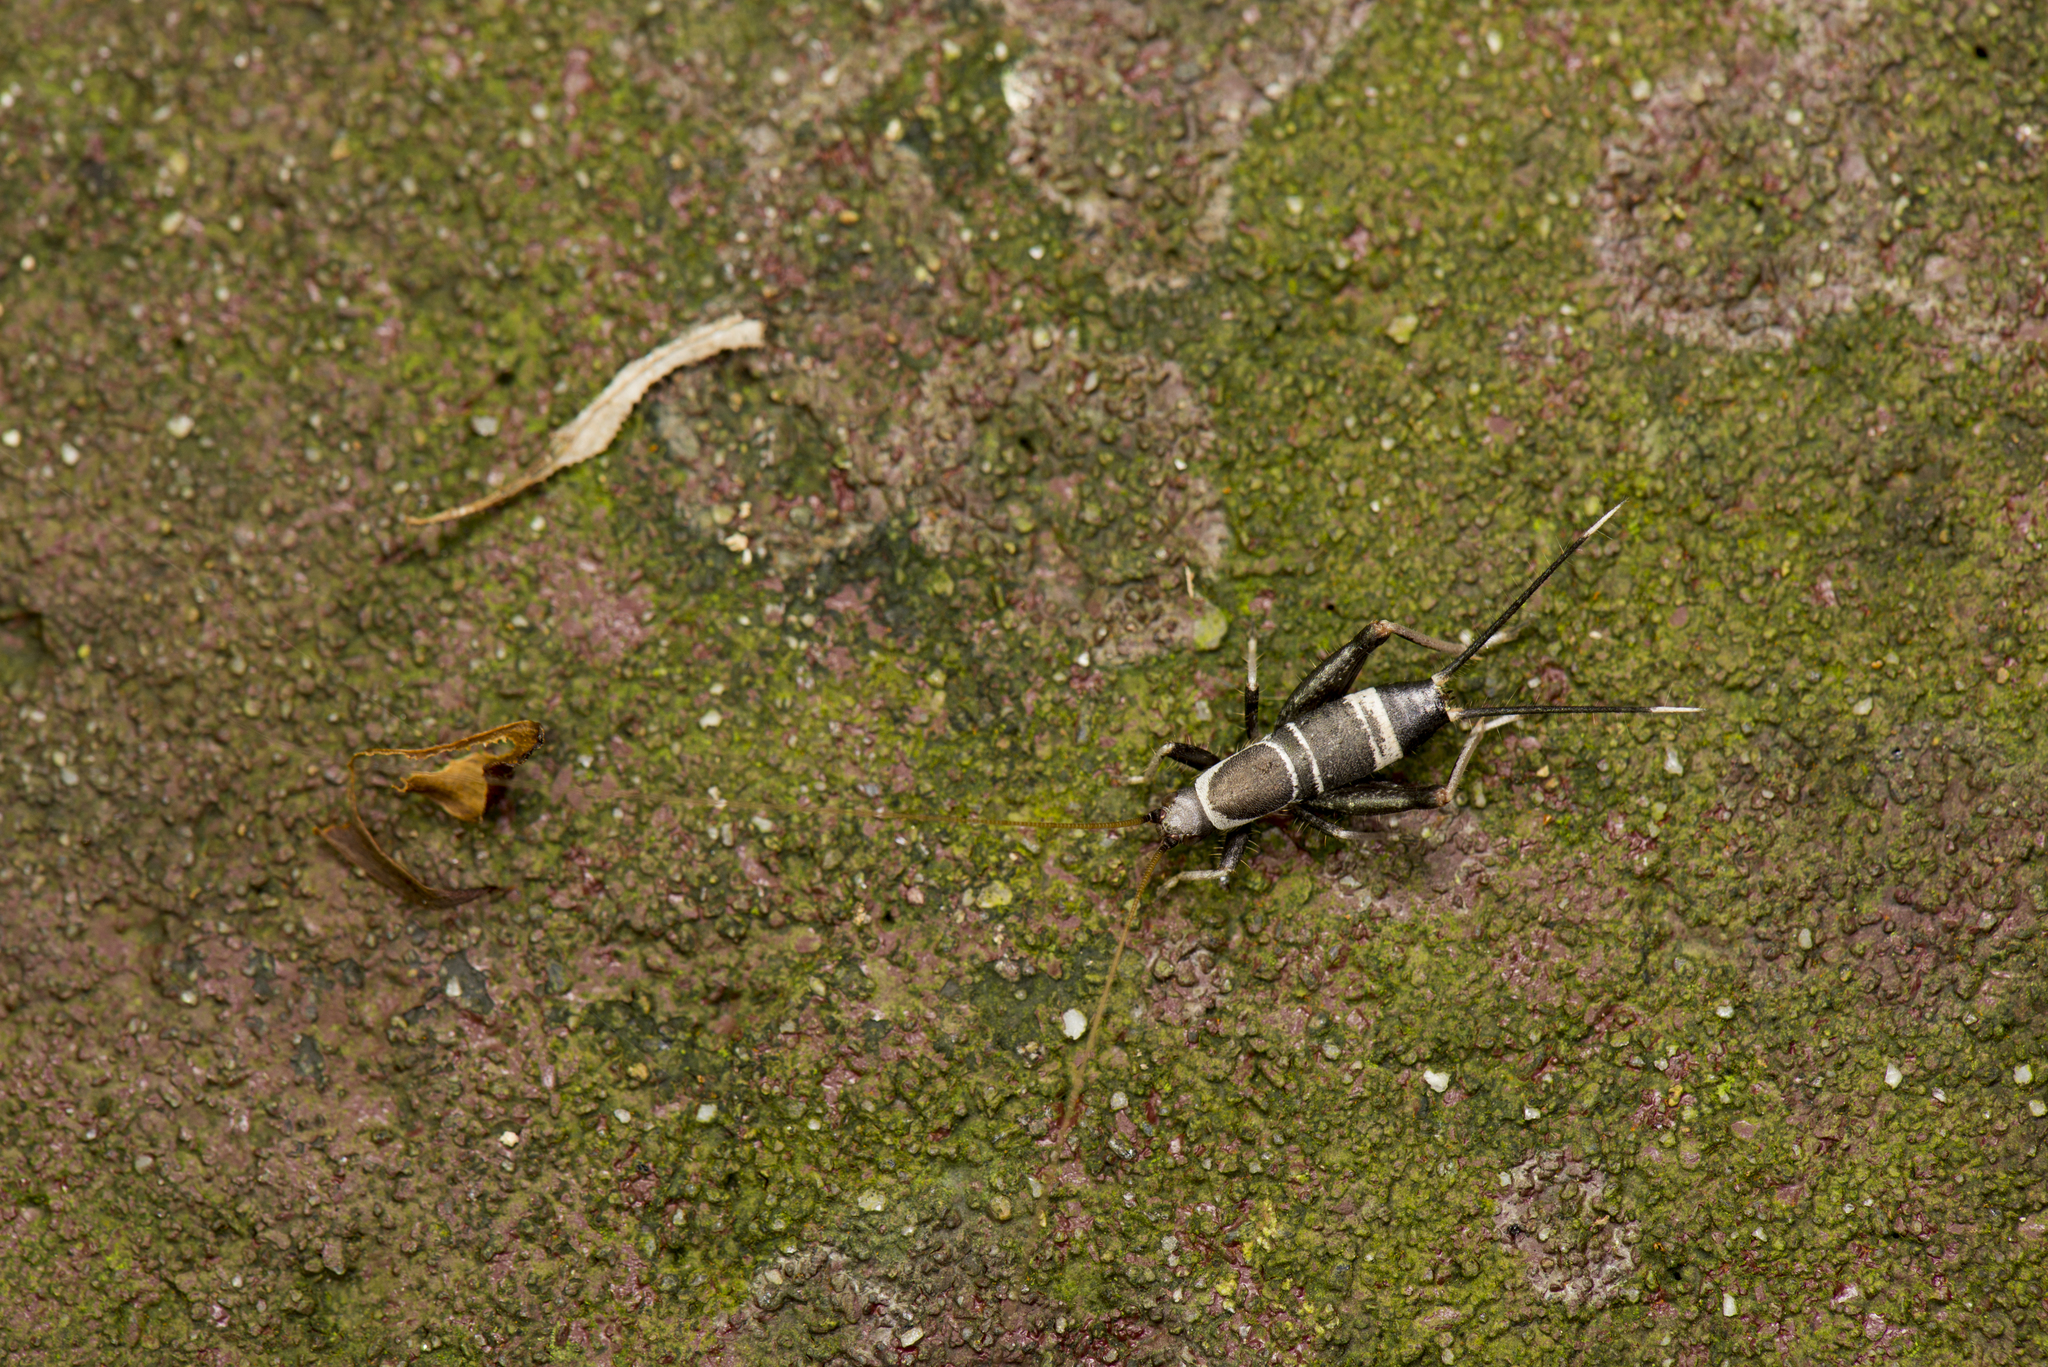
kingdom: Animalia
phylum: Arthropoda
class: Insecta
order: Orthoptera
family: Mogoplistidae
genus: Ornebius
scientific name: Ornebius fuscicerci
